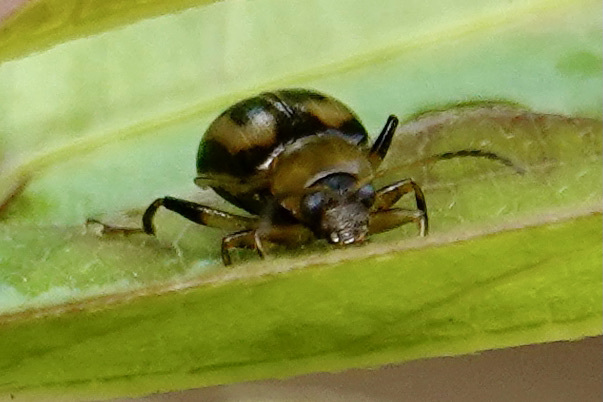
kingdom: Animalia
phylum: Arthropoda
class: Insecta
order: Coleoptera
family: Chrysomelidae
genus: Cerotoma
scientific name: Cerotoma trifurcata
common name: Bean leaf beetle
